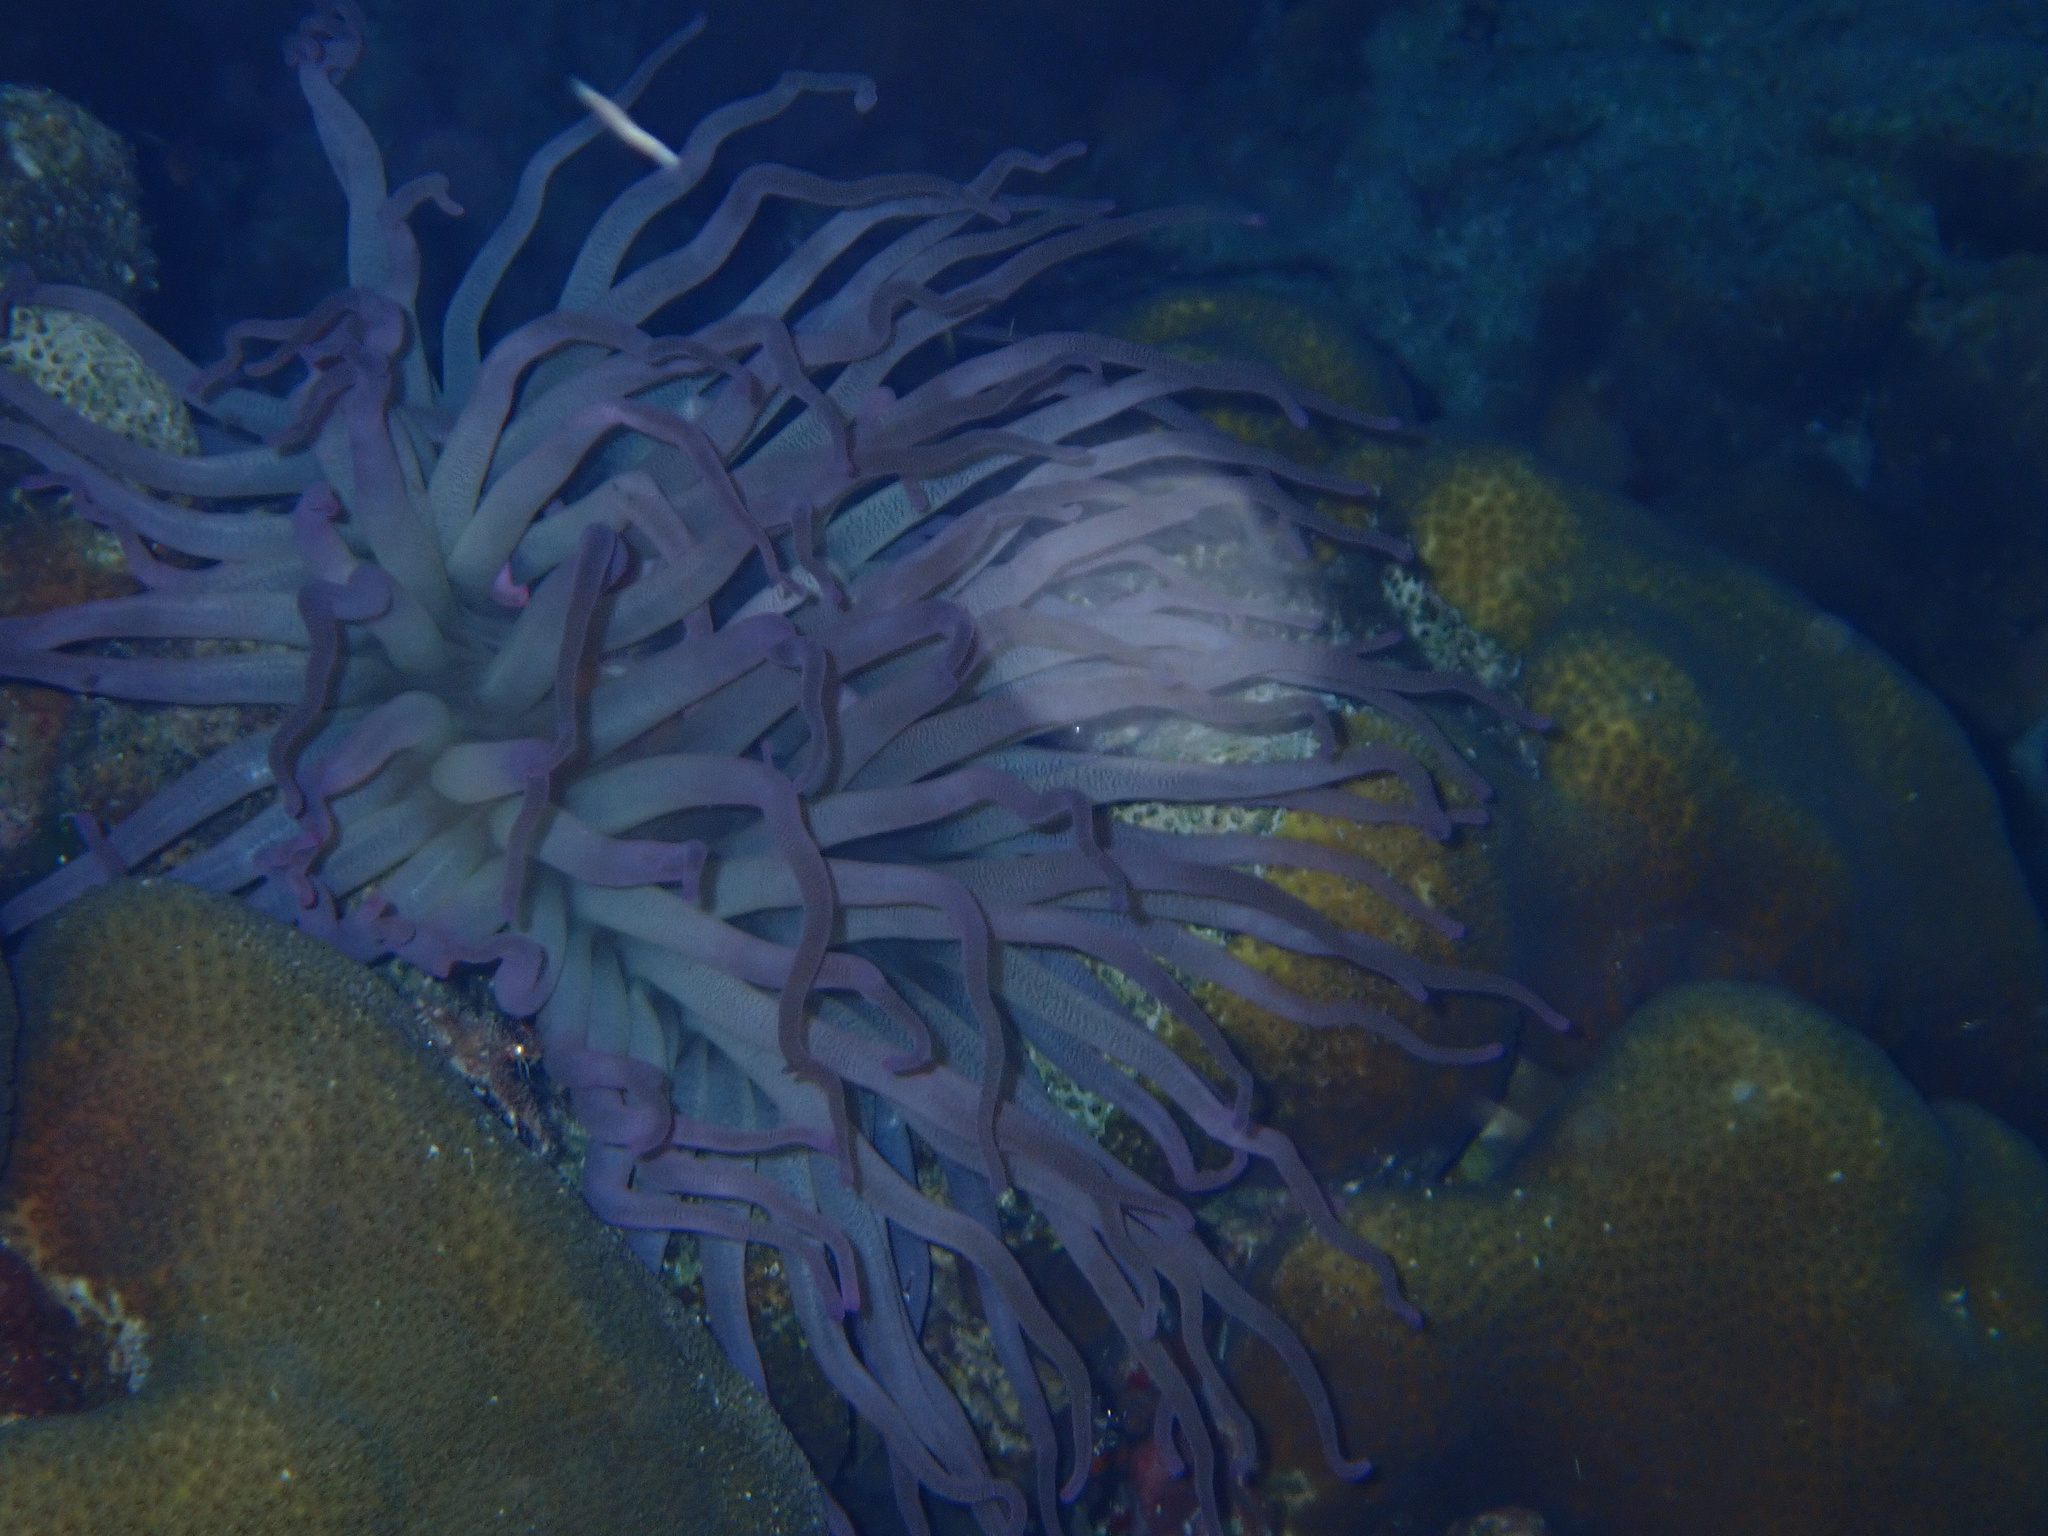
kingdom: Animalia
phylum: Cnidaria
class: Anthozoa
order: Actiniaria
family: Actiniidae
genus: Condylactis
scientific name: Condylactis gigantea
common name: Giant caribbean anemone
